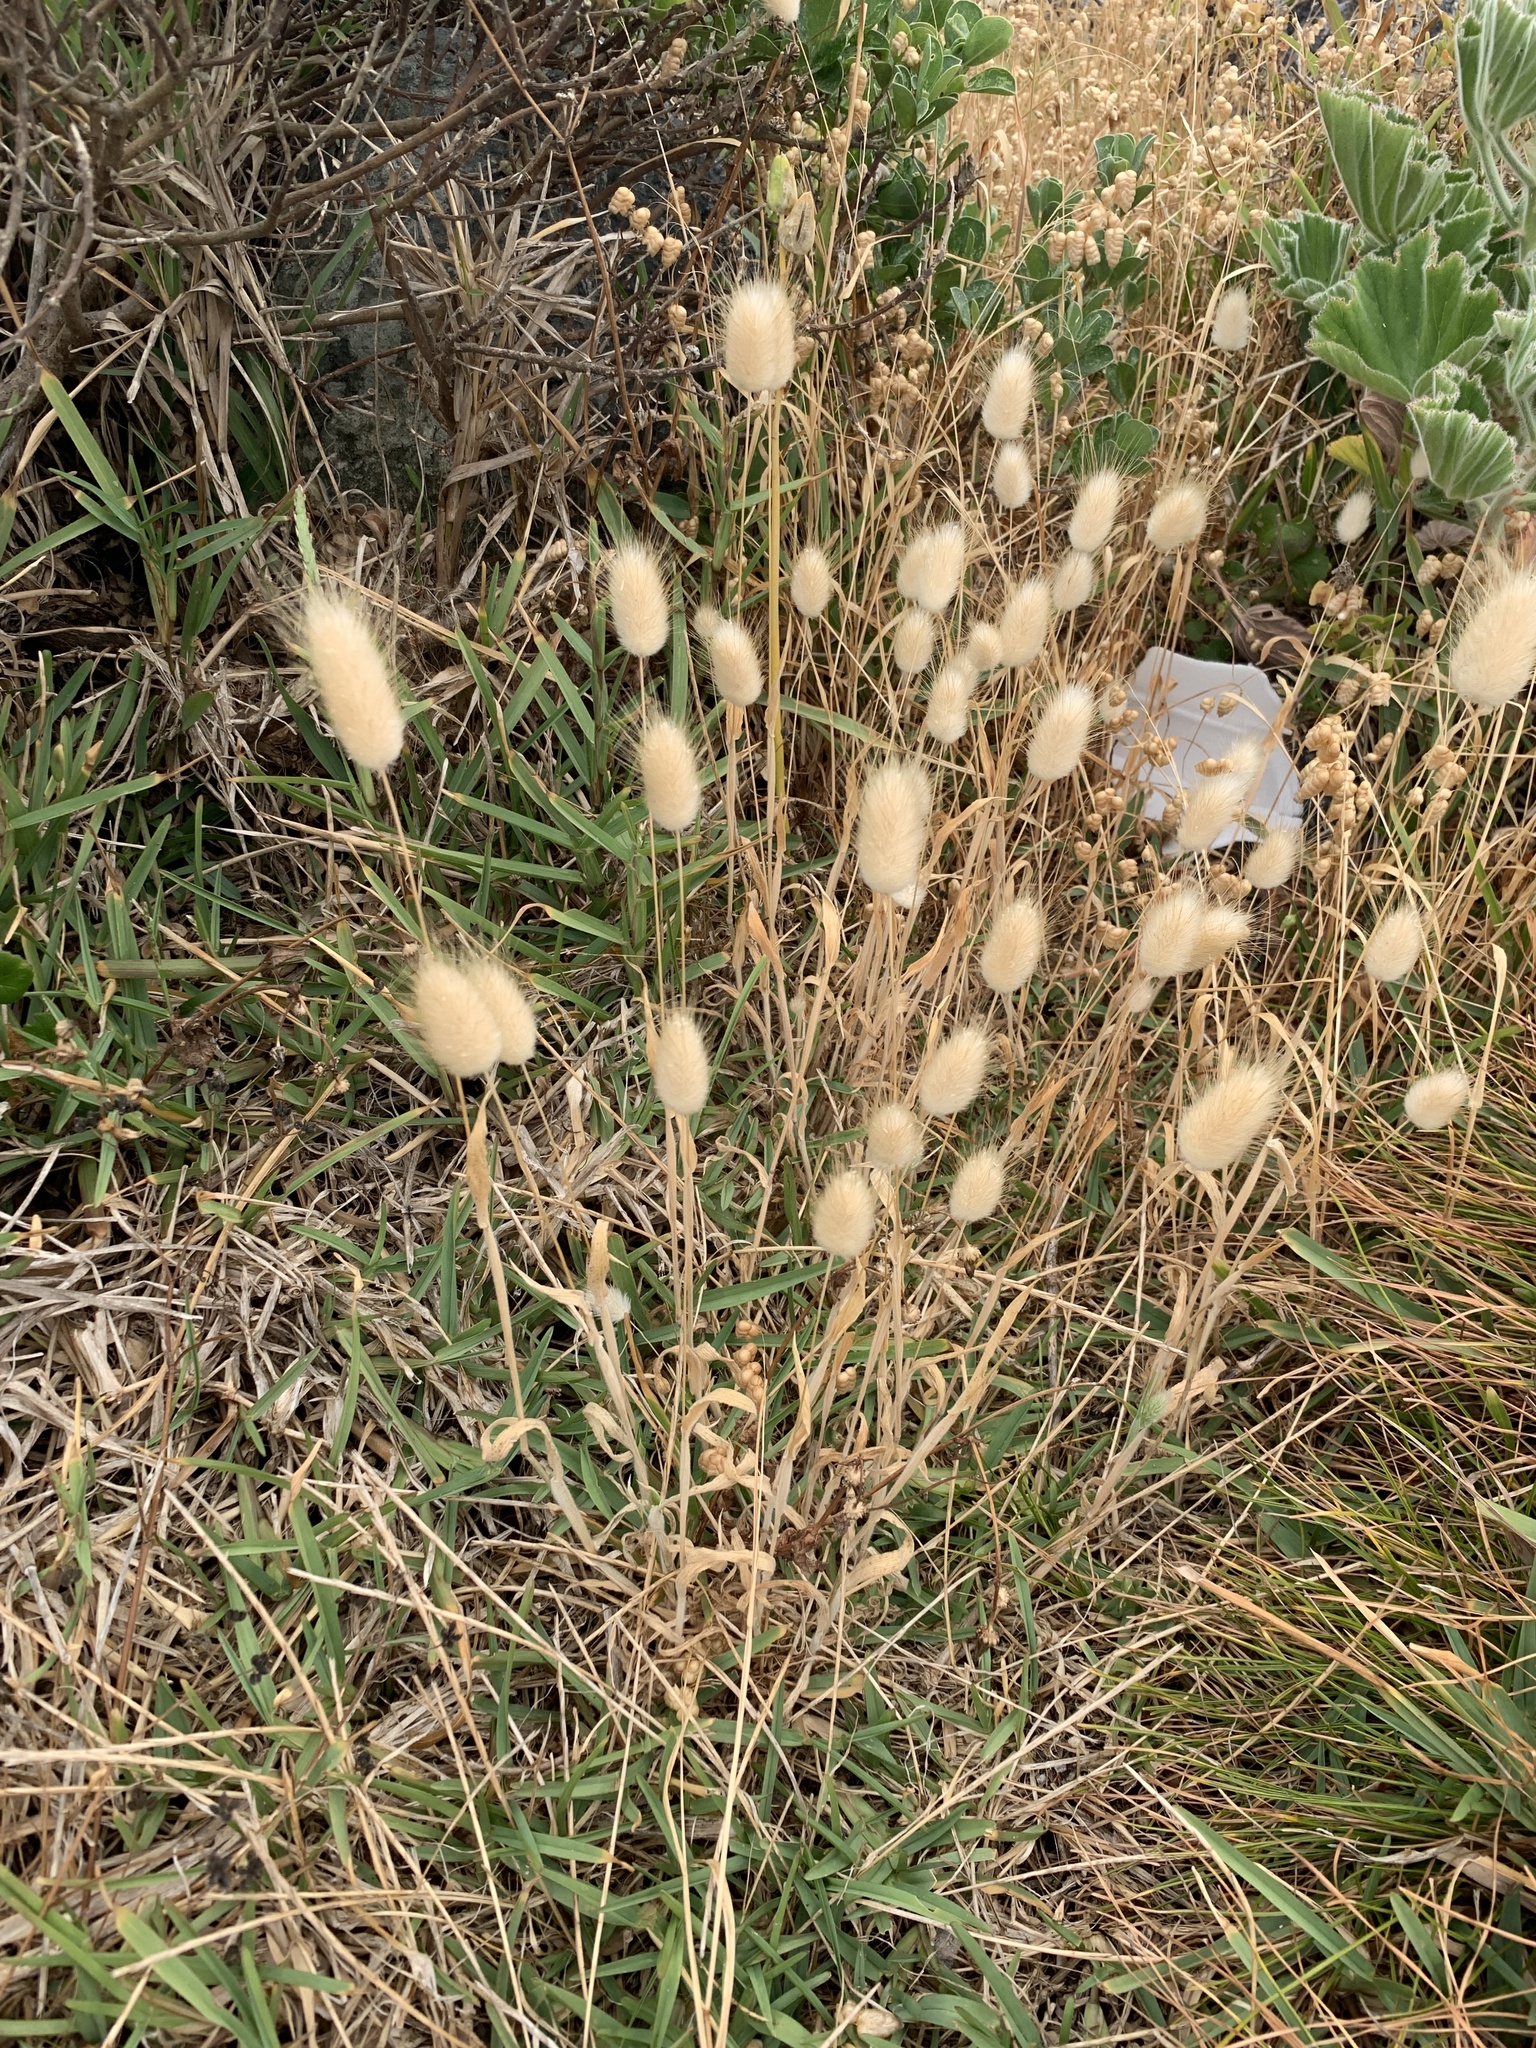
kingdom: Plantae
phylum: Tracheophyta
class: Liliopsida
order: Poales
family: Poaceae
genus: Lagurus
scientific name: Lagurus ovatus
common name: Hare's-tail
